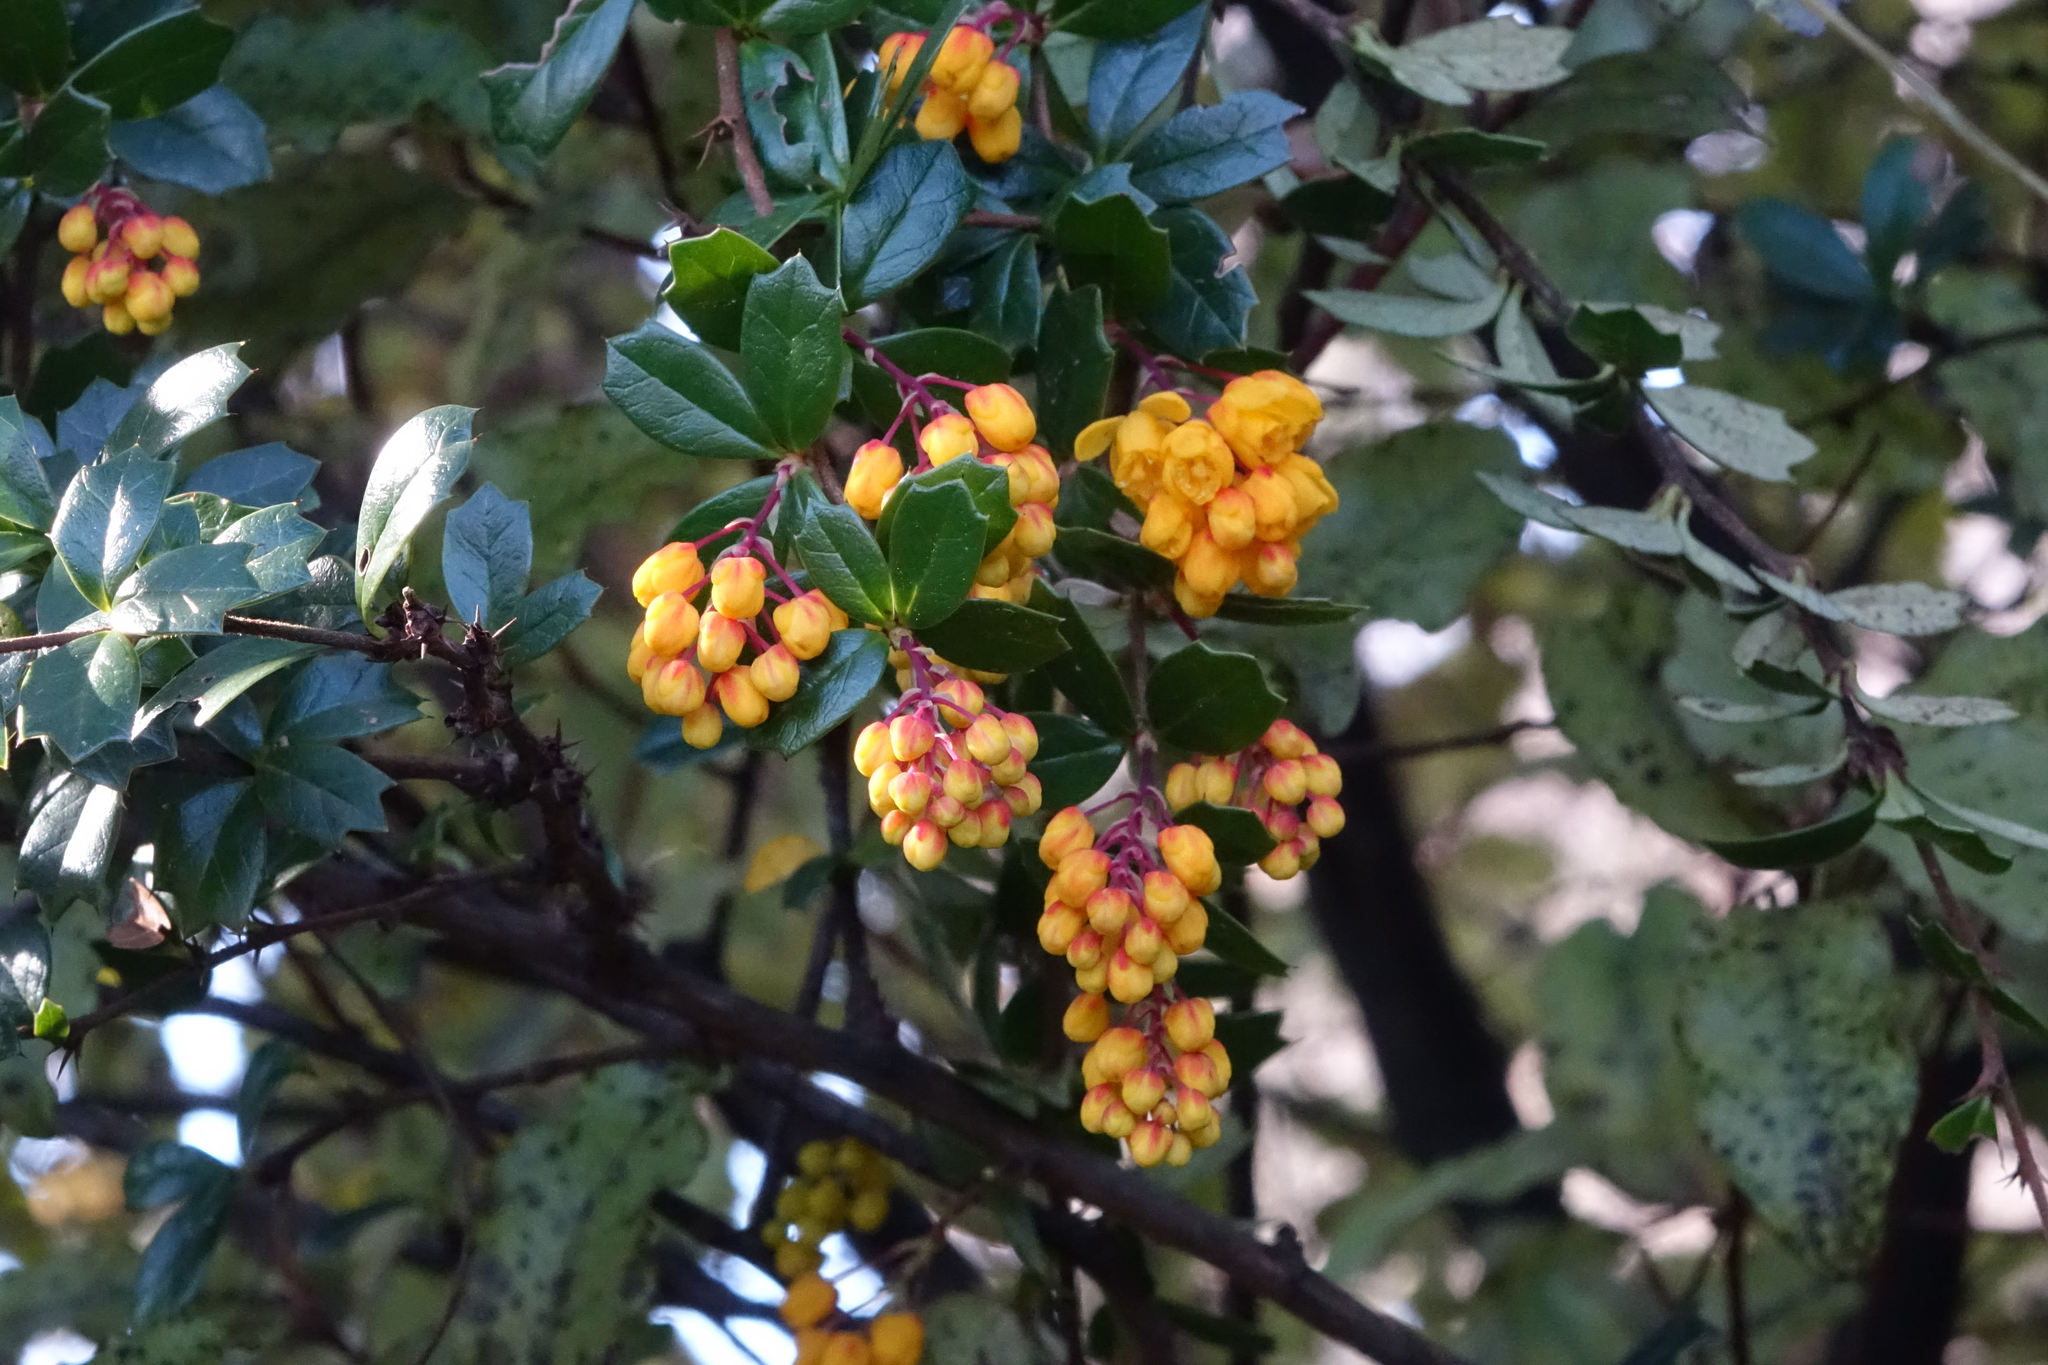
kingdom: Plantae
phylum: Tracheophyta
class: Magnoliopsida
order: Ranunculales
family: Berberidaceae
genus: Berberis
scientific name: Berberis darwinii
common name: Darwin's barberry
